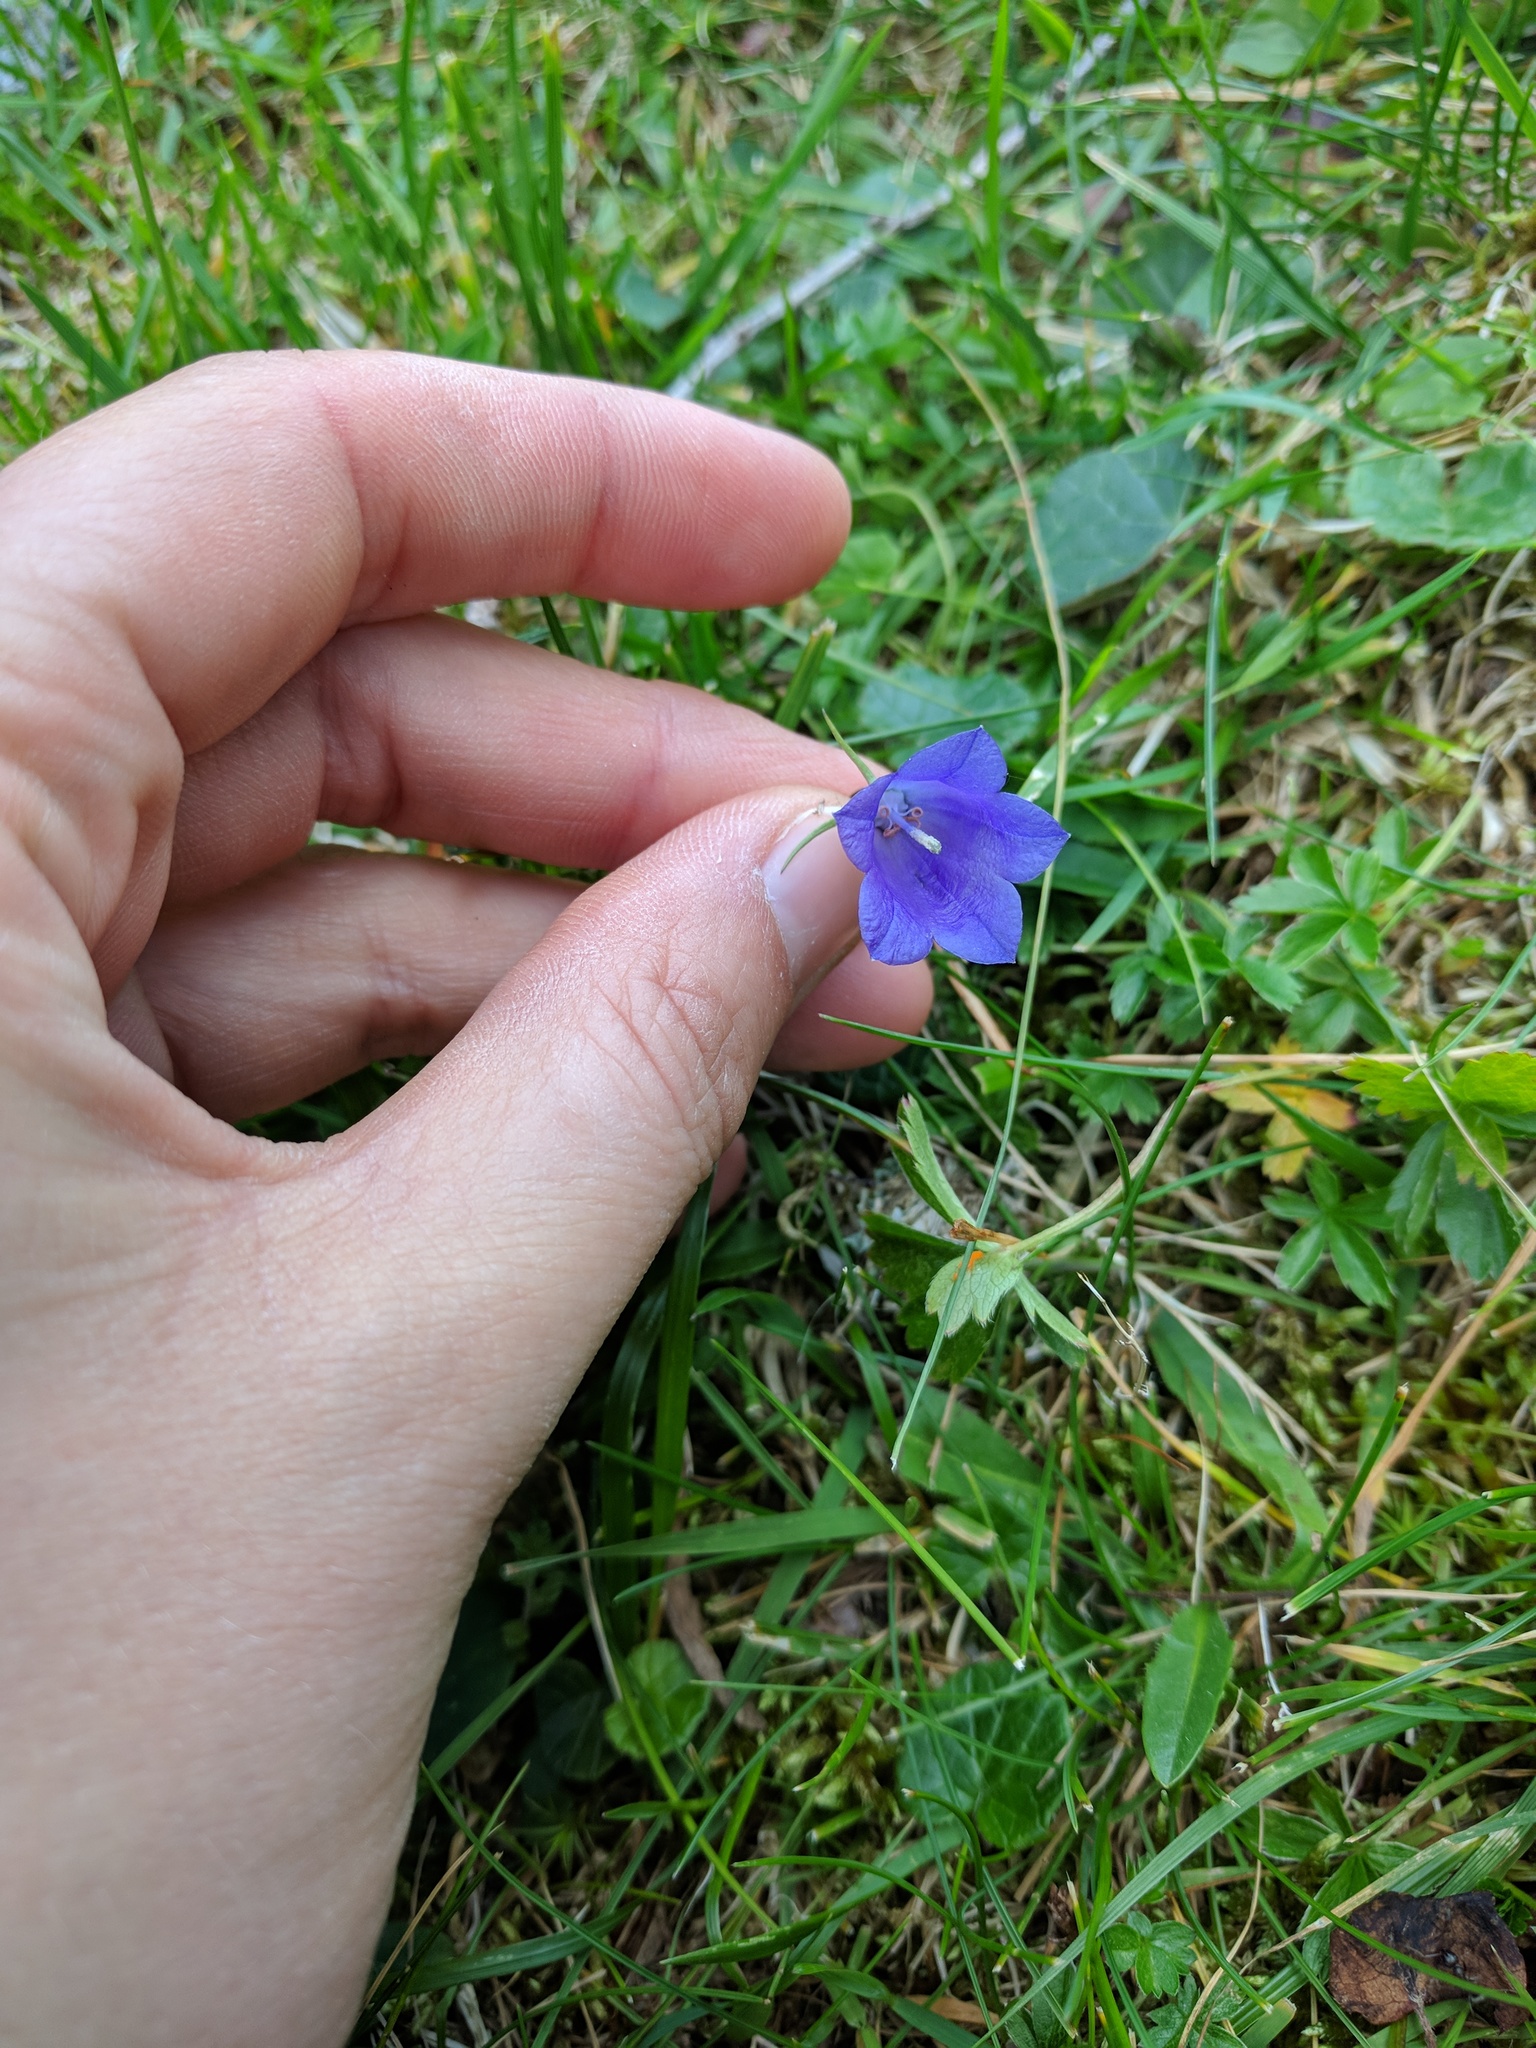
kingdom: Plantae
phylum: Tracheophyta
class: Magnoliopsida
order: Asterales
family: Campanulaceae
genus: Campanula
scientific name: Campanula scheuchzeri
